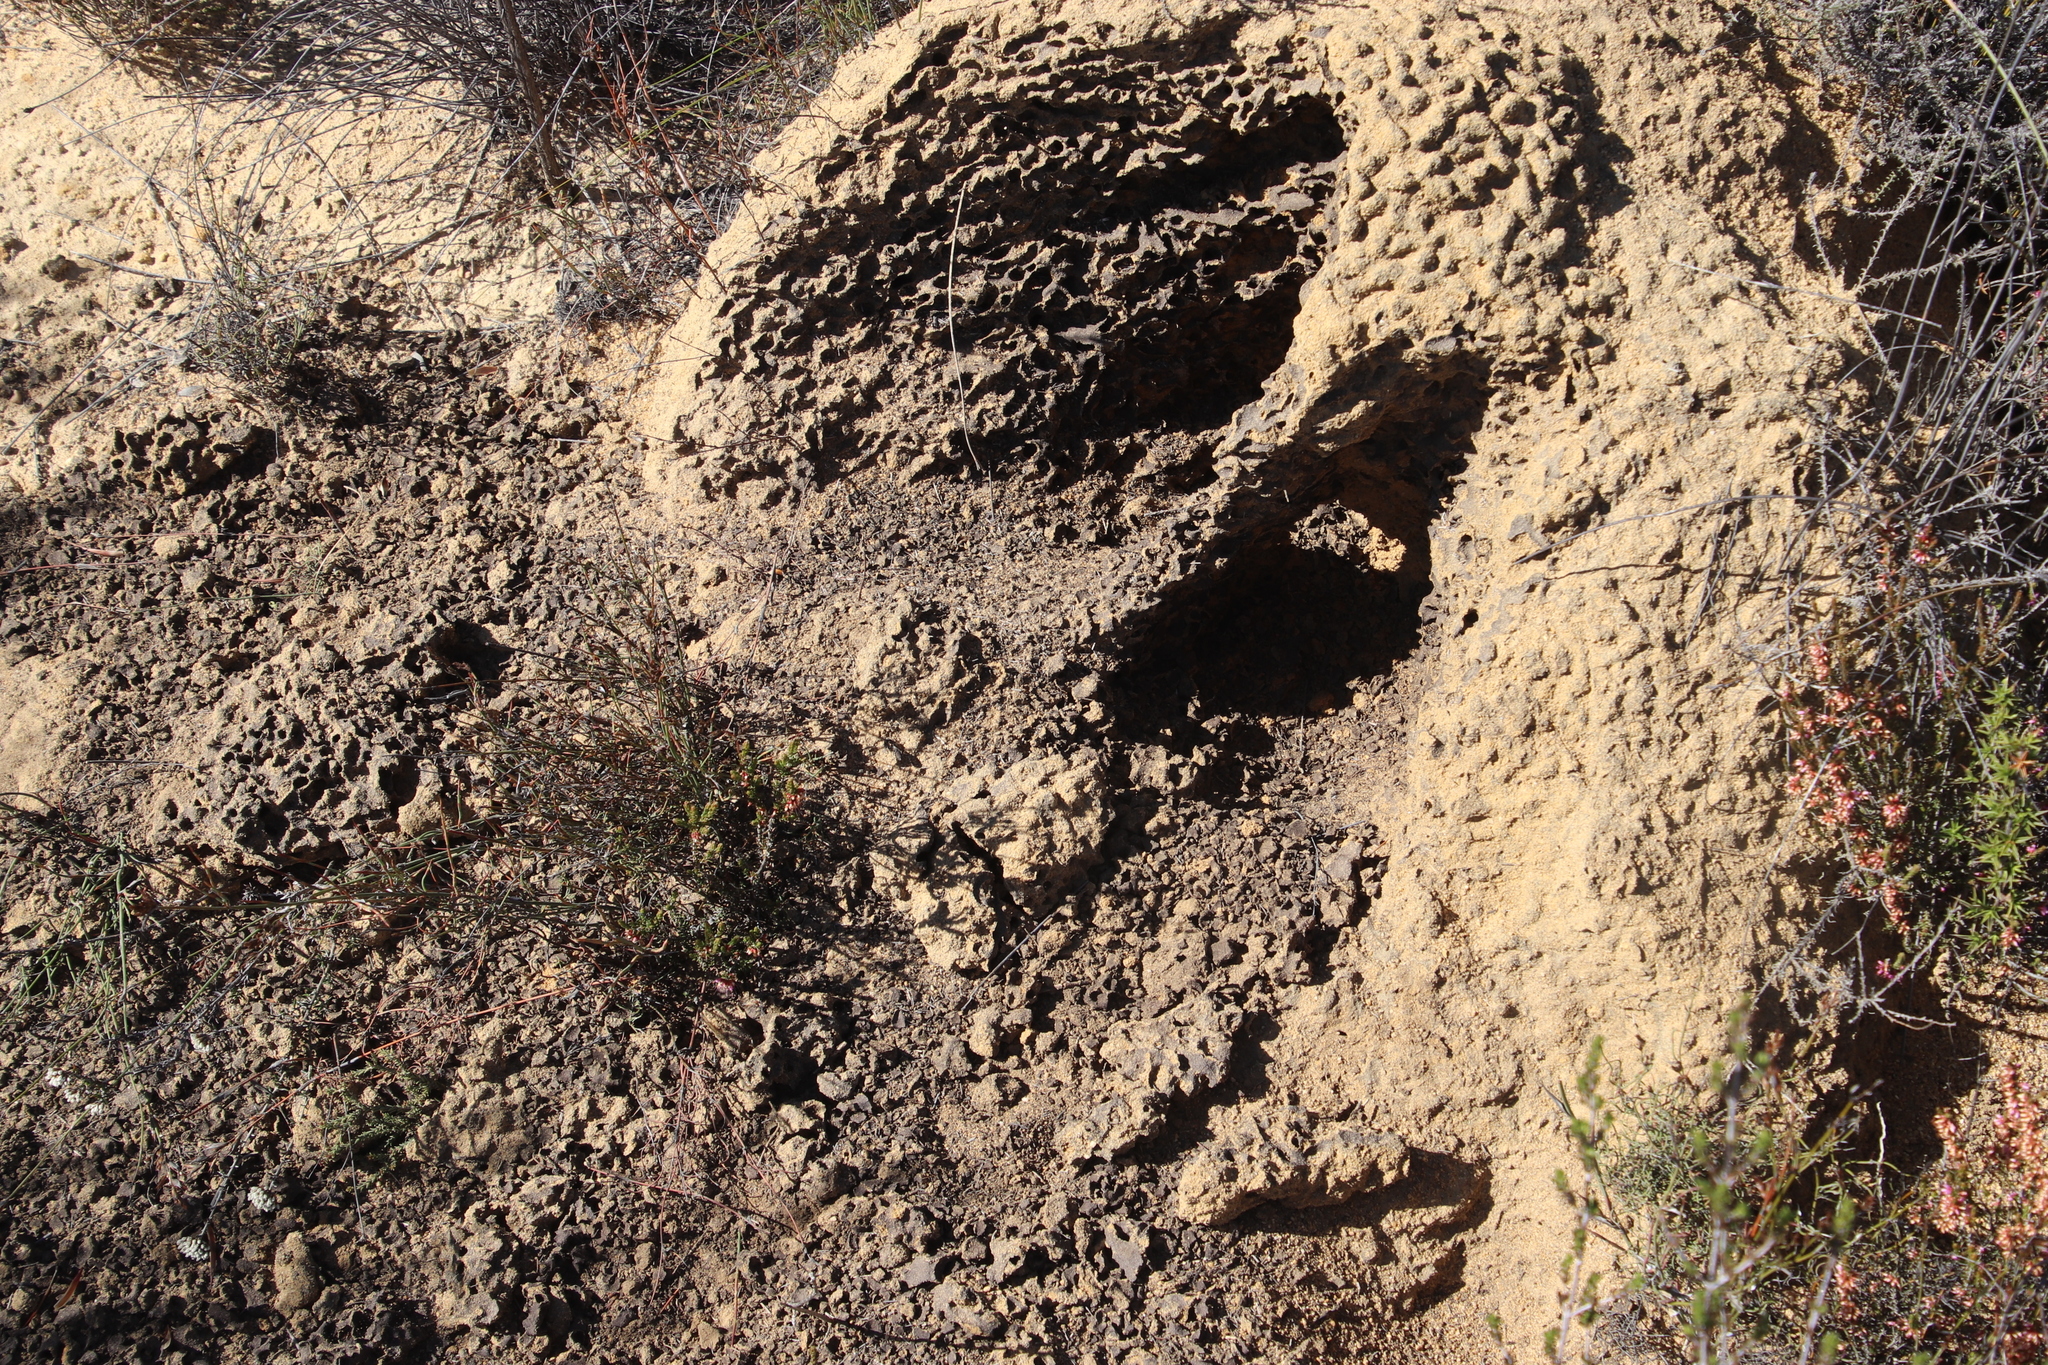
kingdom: Animalia
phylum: Chordata
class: Mammalia
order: Tubulidentata
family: Orycteropodidae
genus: Orycteropus
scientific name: Orycteropus afer
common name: Aardvark
